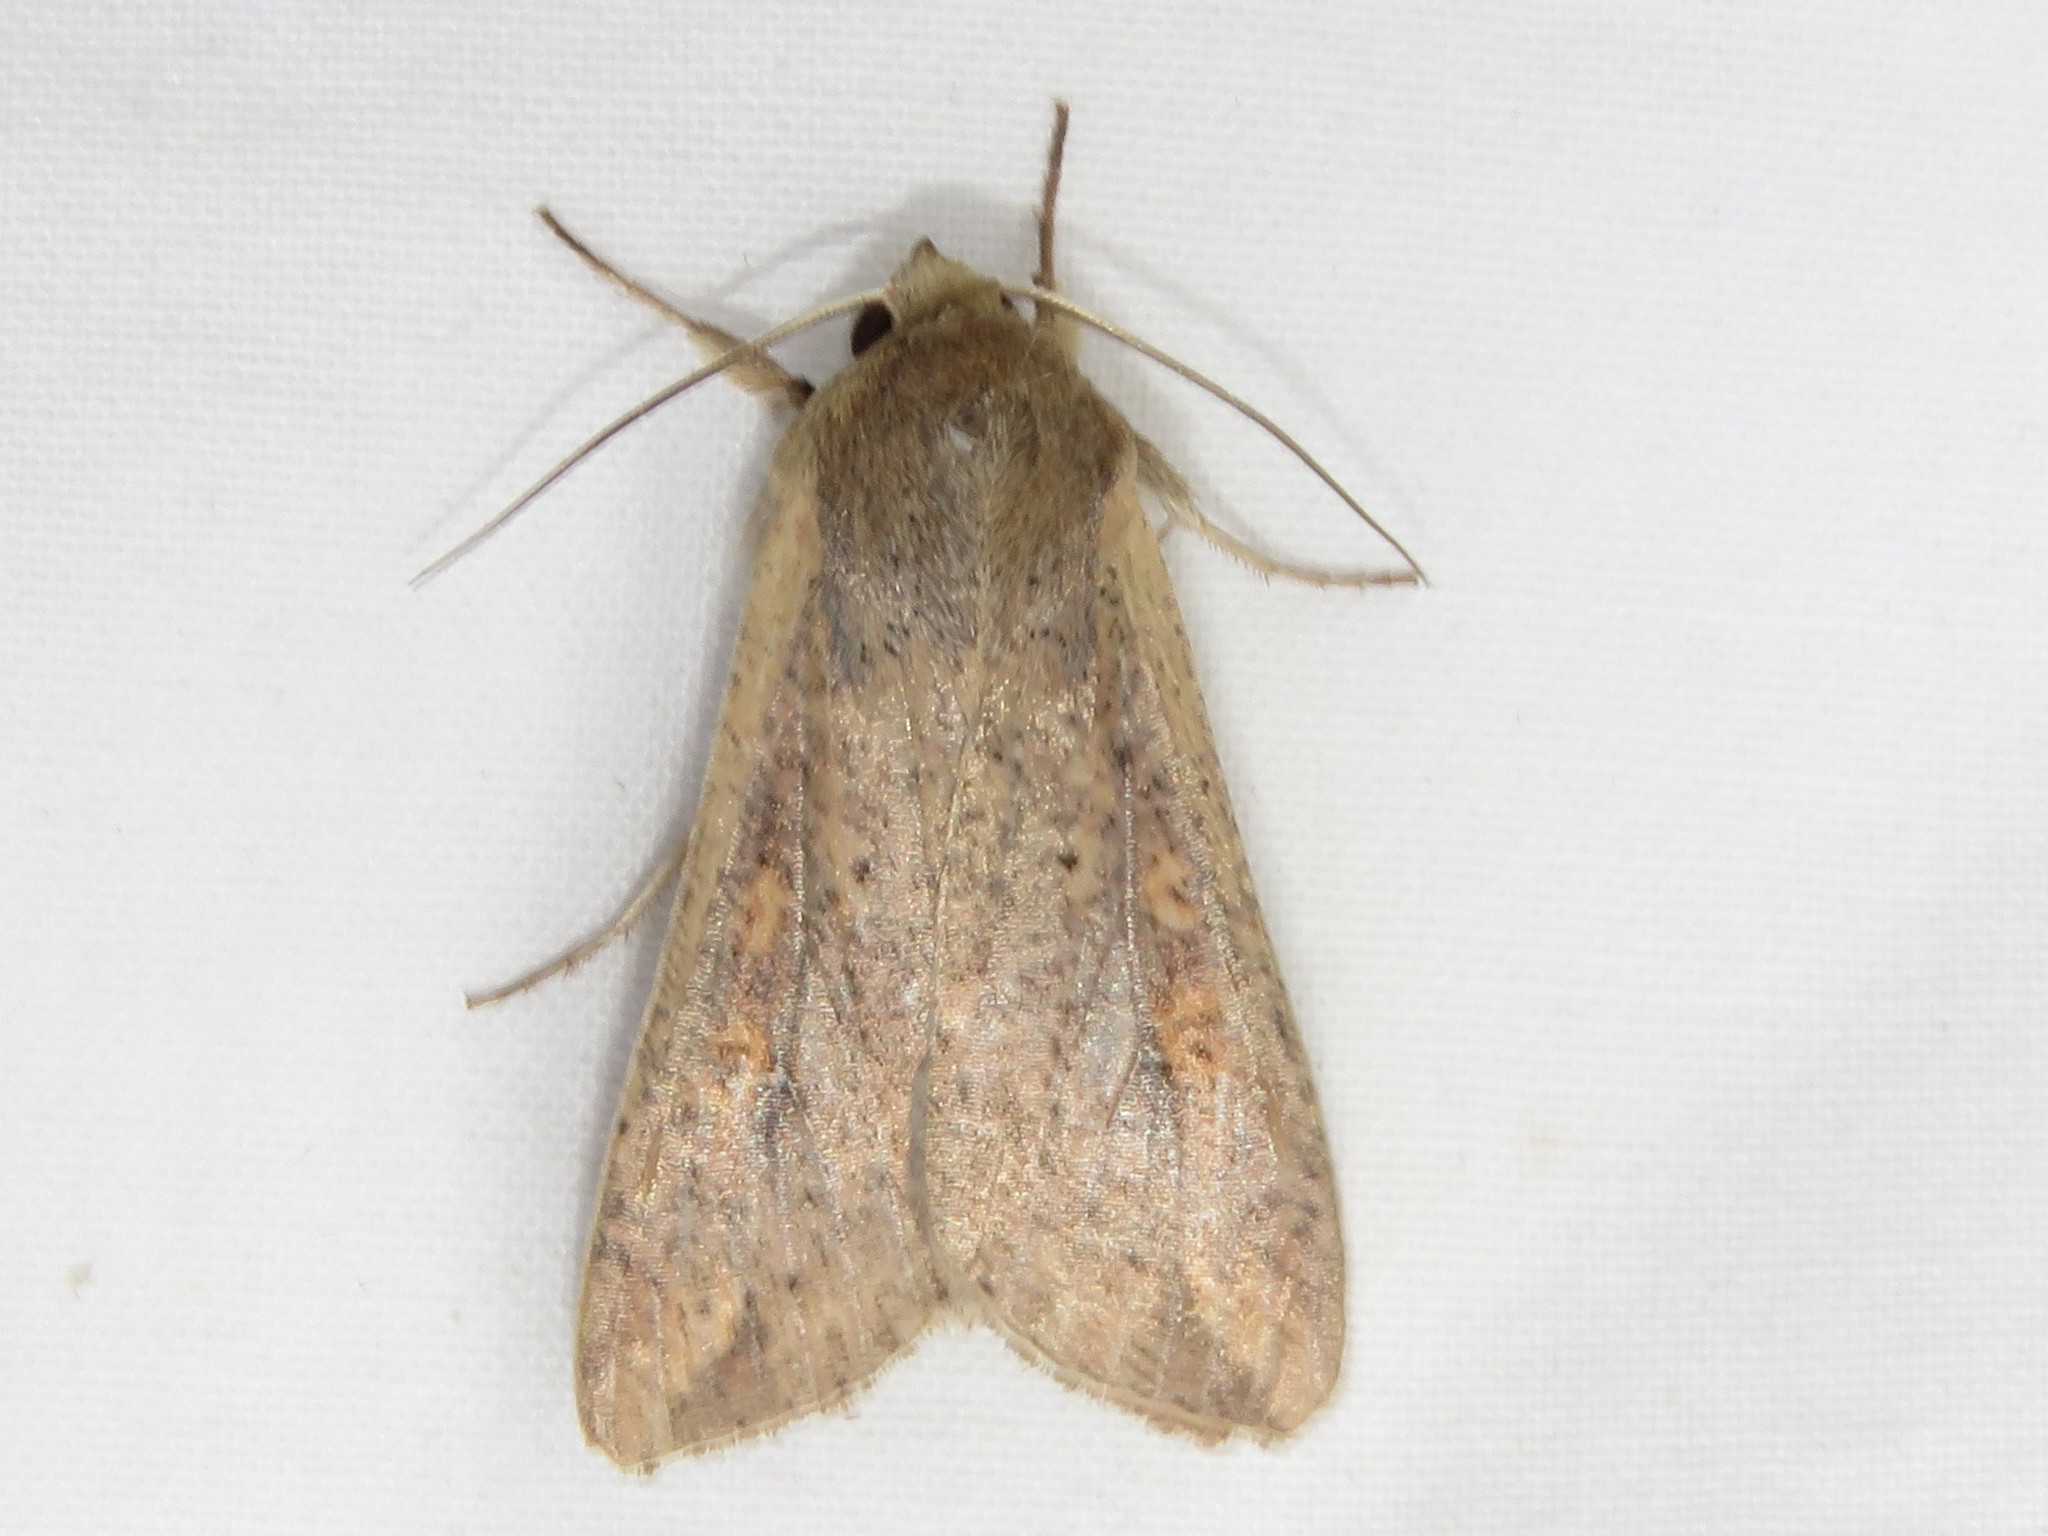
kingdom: Animalia
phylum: Arthropoda
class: Insecta
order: Lepidoptera
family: Noctuidae
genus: Mythimna
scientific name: Mythimna unipuncta
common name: White-speck
